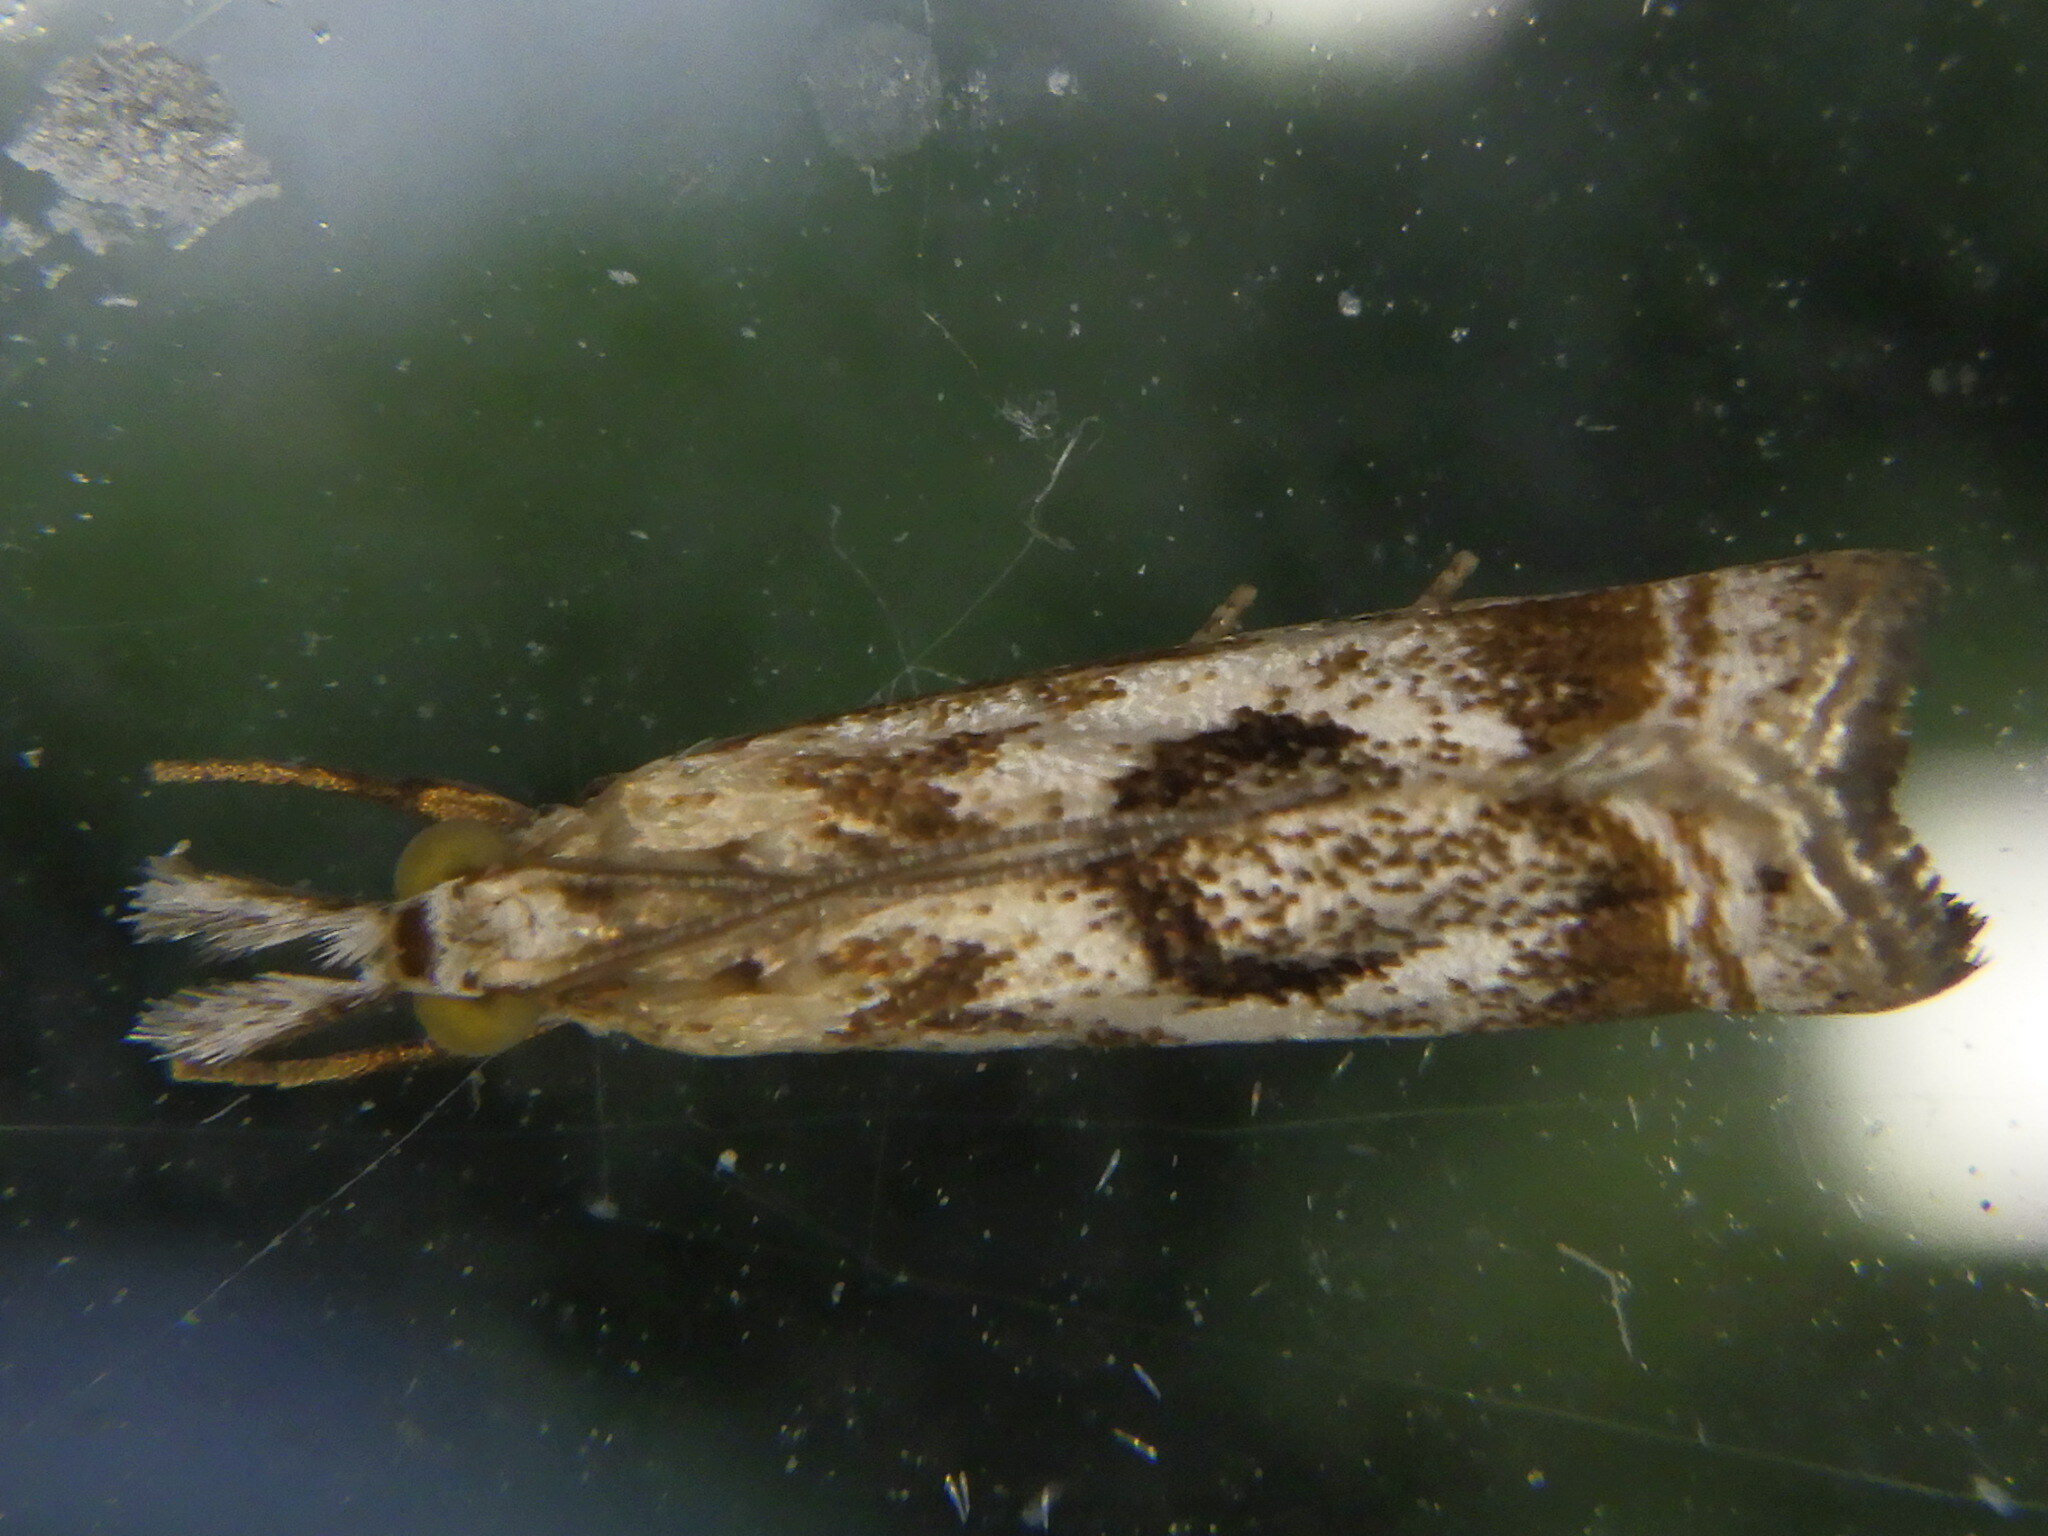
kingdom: Animalia
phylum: Arthropoda
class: Insecta
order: Lepidoptera
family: Crambidae
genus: Microcrambus
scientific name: Microcrambus elegans
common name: Elegant grass-veneer
